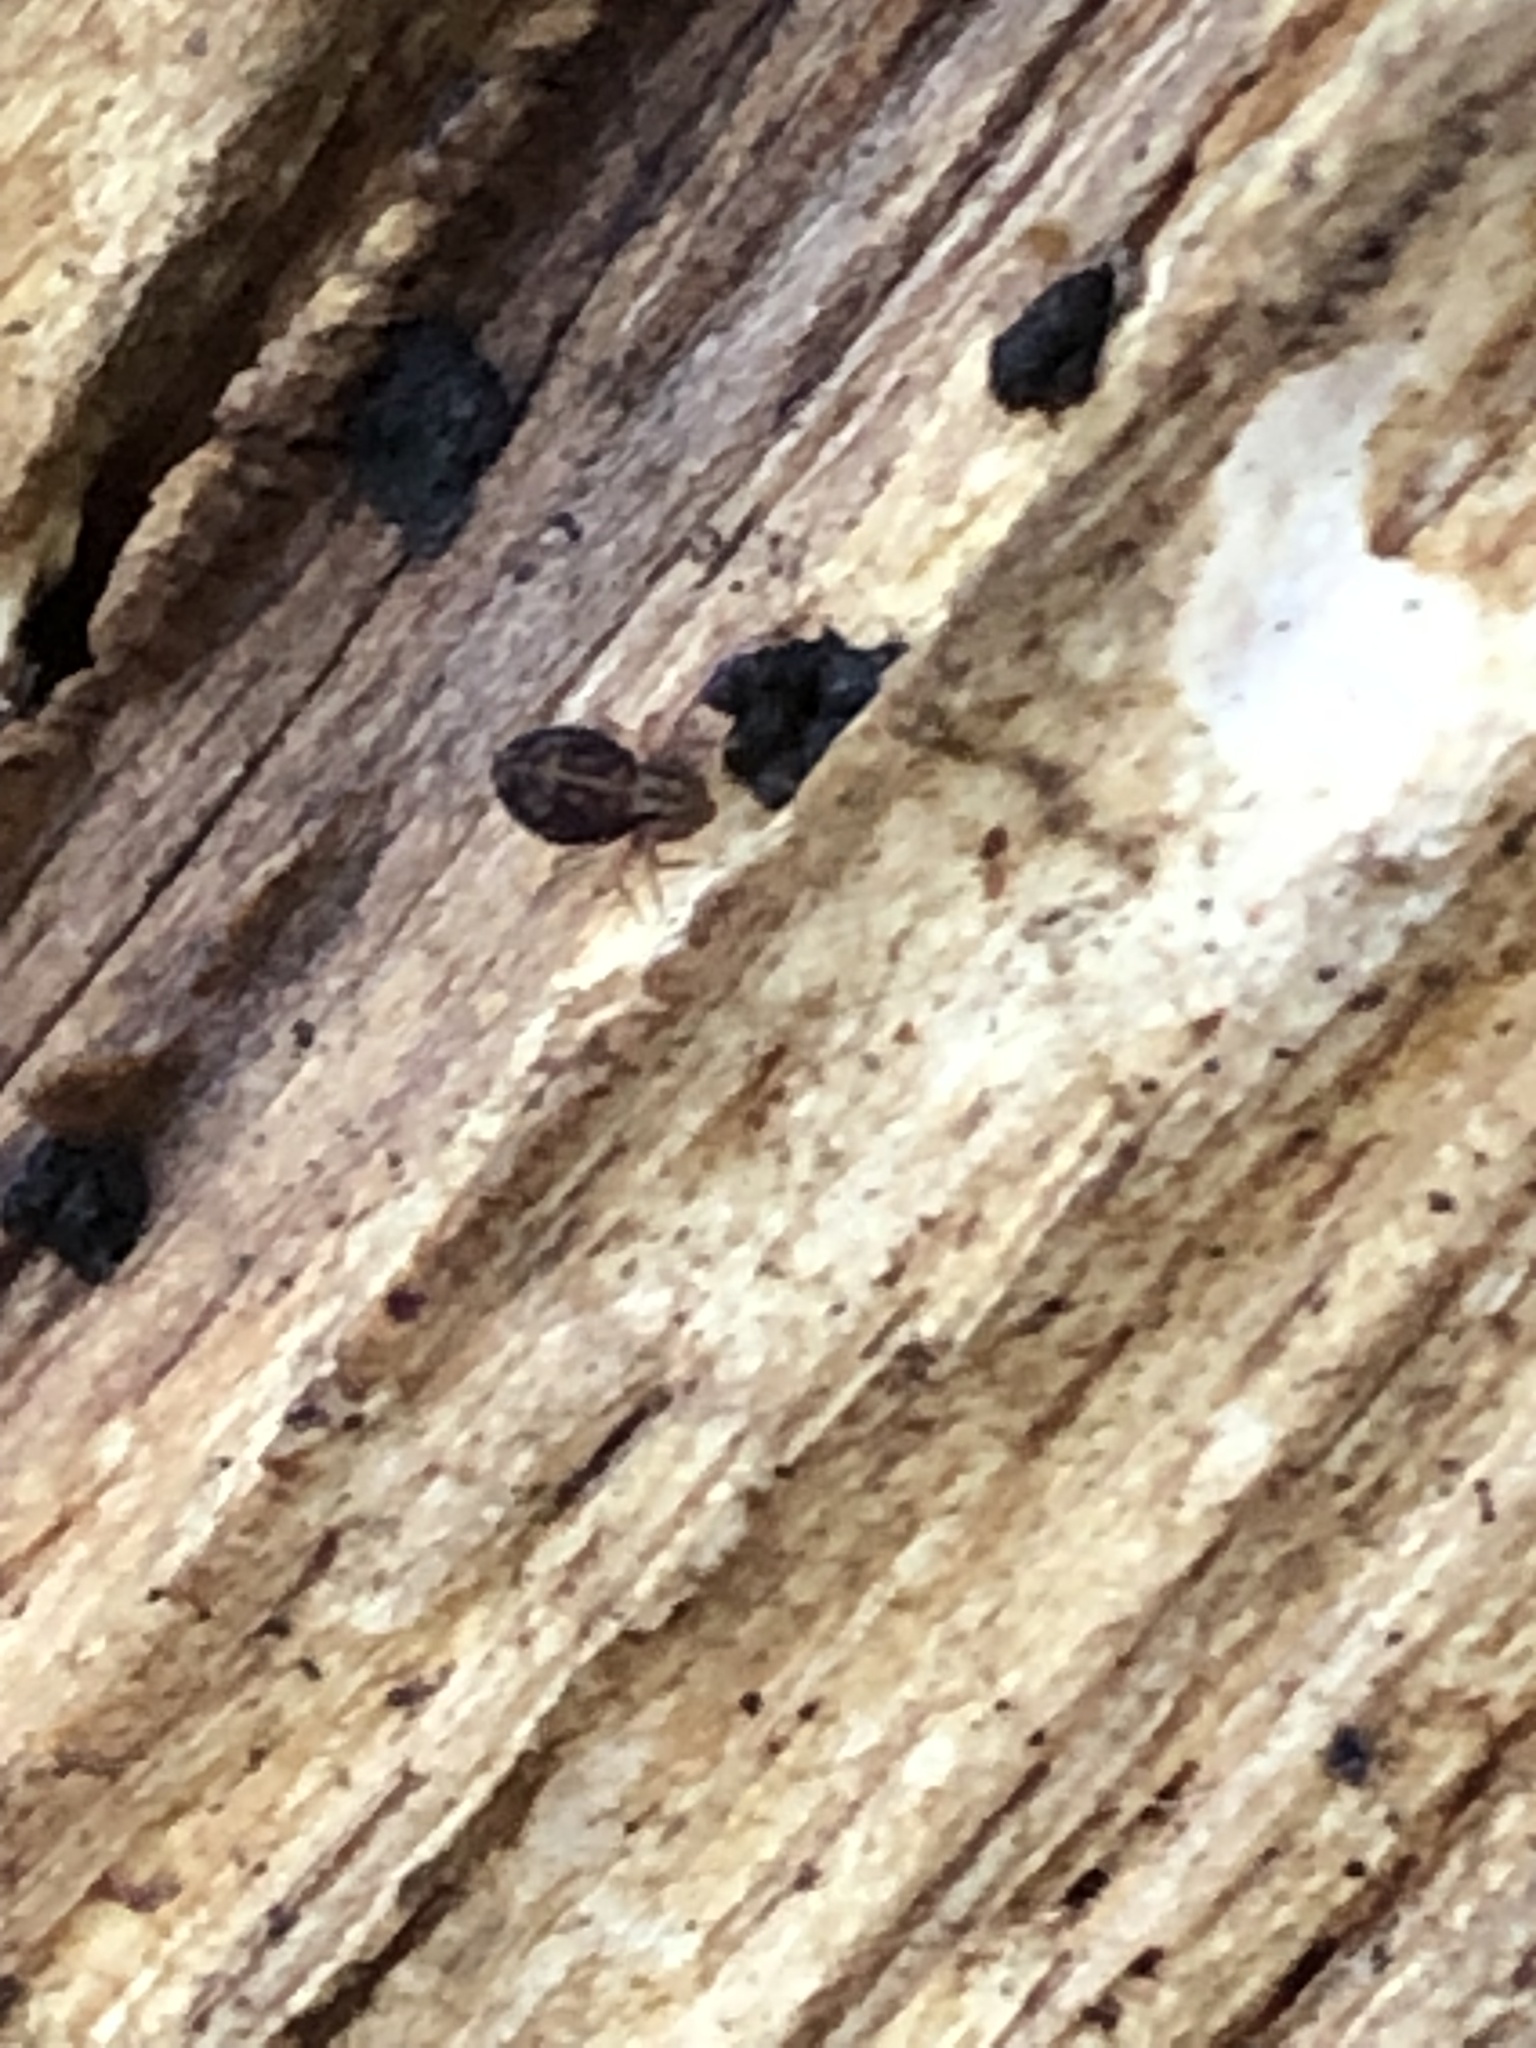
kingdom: Animalia
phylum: Arthropoda
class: Collembola
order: Symphypleona
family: Dicyrtomidae
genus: Dicyrtomina
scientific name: Dicyrtomina minuta
